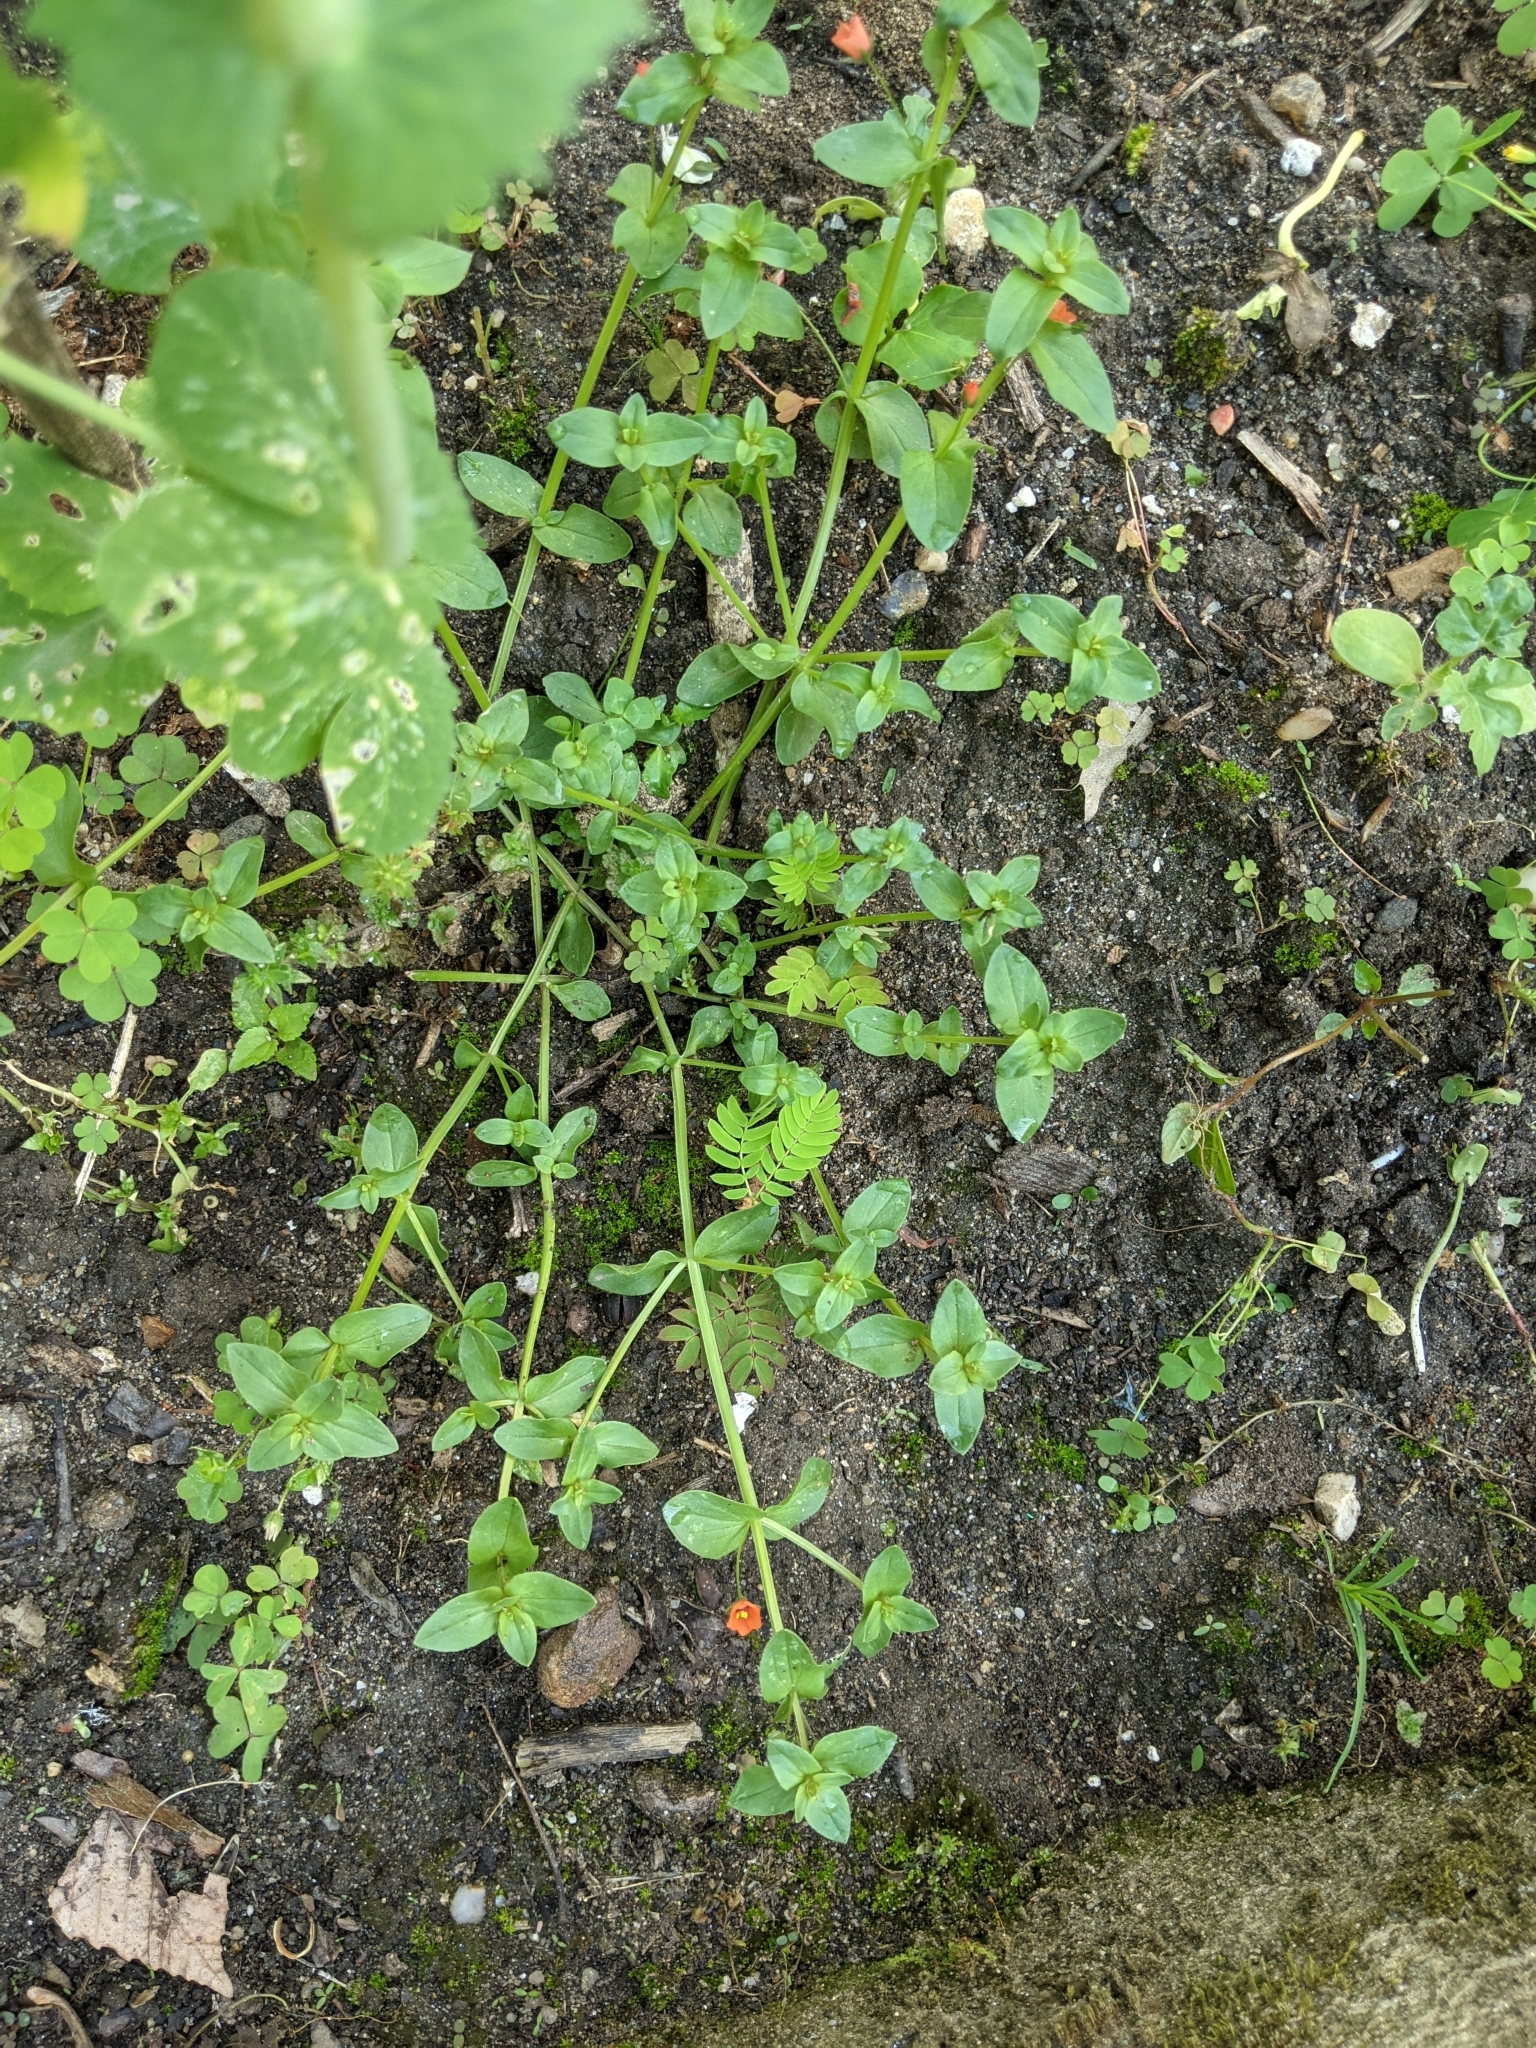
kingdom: Plantae
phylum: Tracheophyta
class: Magnoliopsida
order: Ericales
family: Primulaceae
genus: Lysimachia
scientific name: Lysimachia arvensis
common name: Scarlet pimpernel
